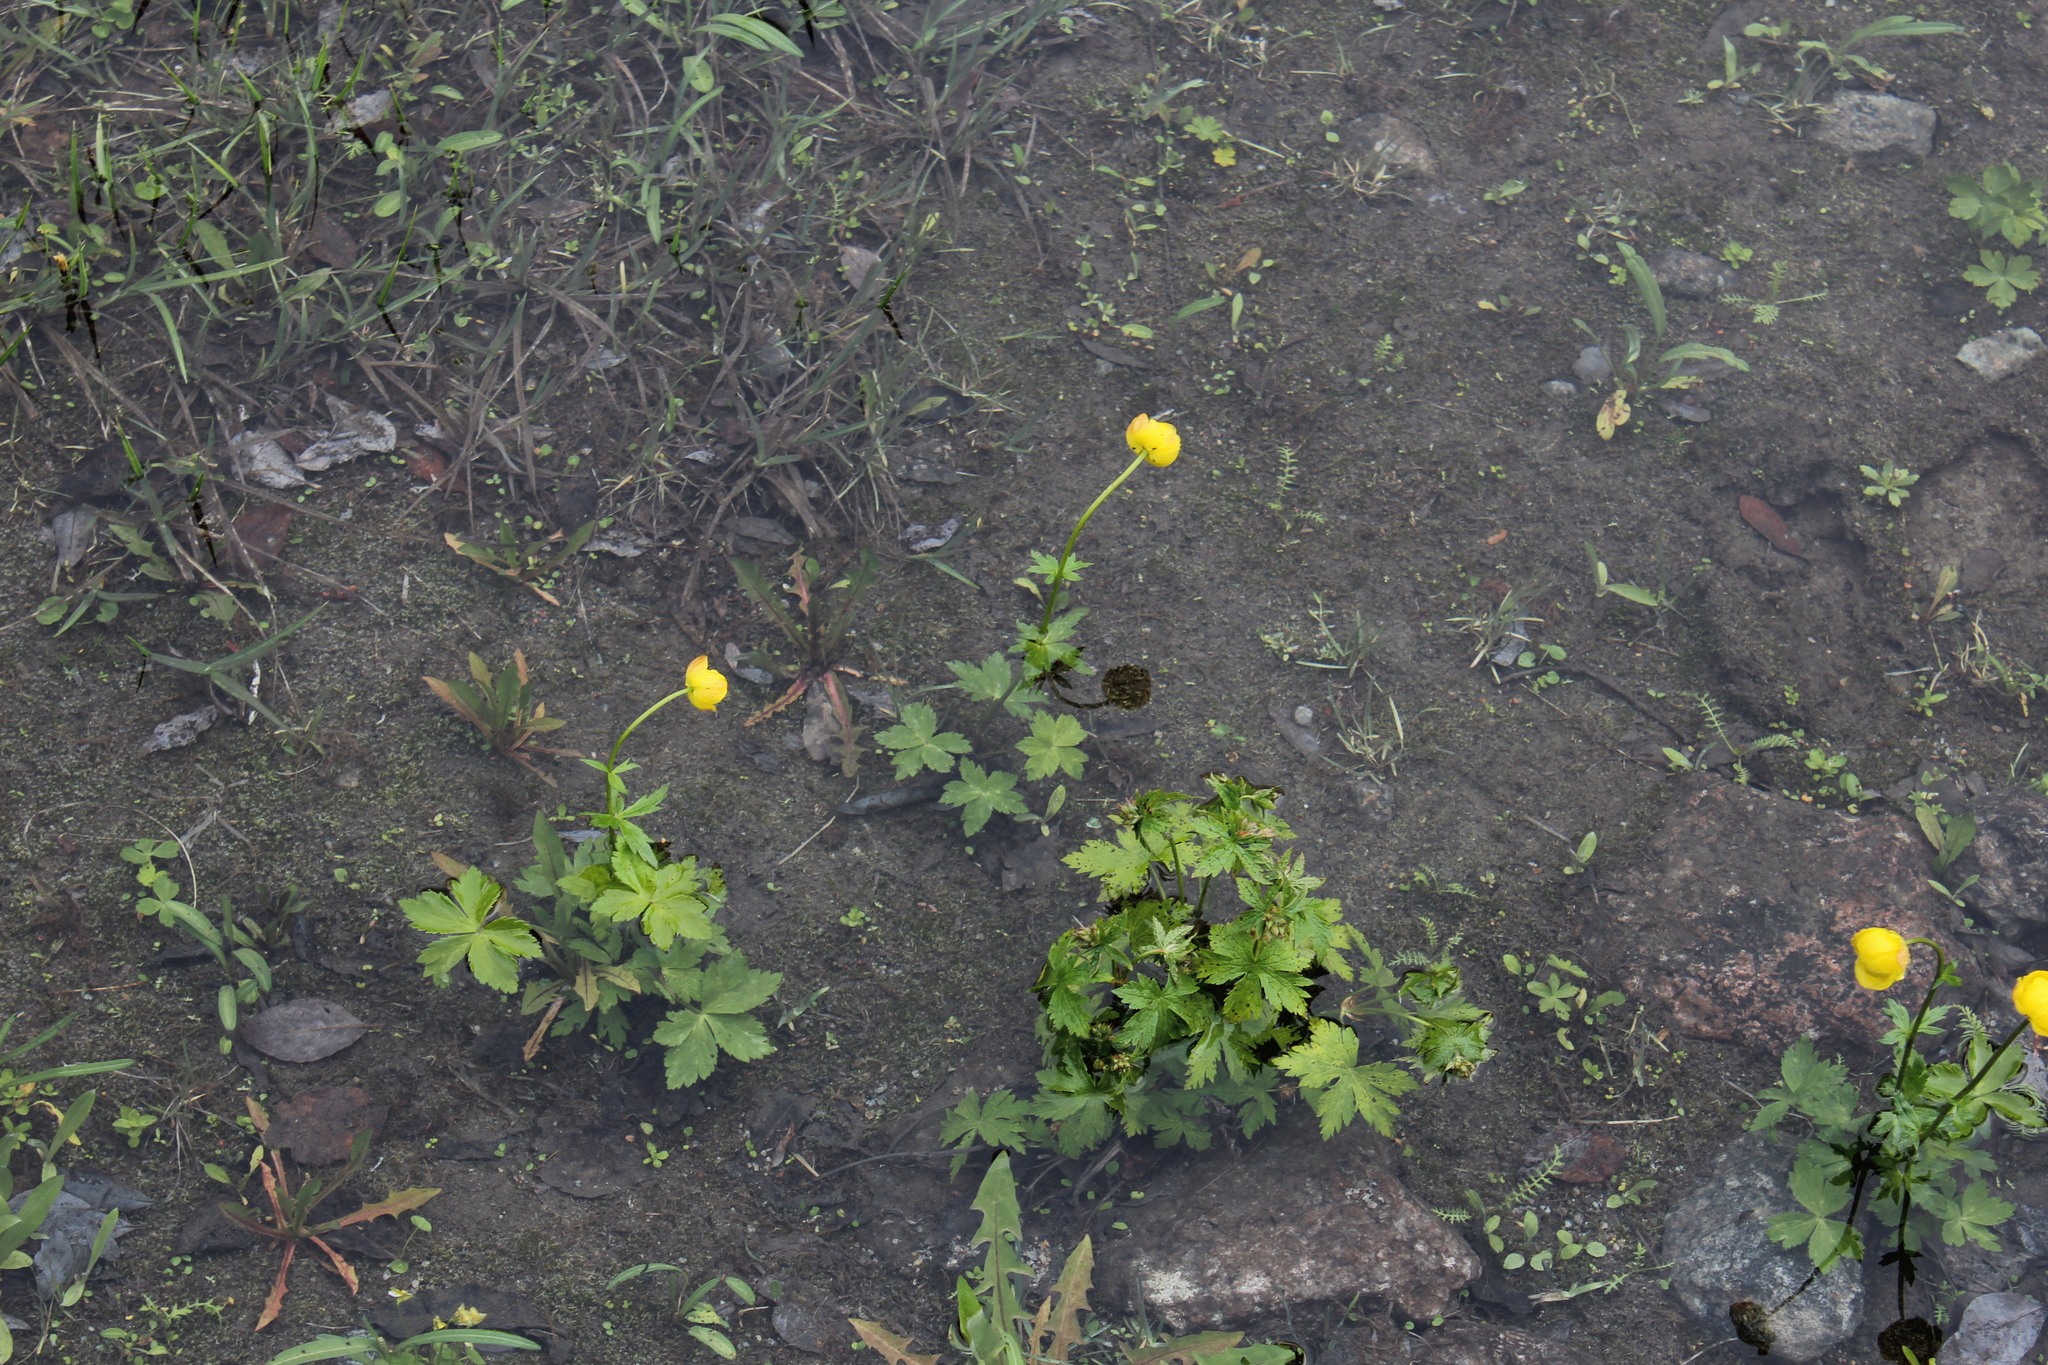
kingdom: Plantae
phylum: Tracheophyta
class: Magnoliopsida
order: Ranunculales
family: Ranunculaceae
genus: Trollius
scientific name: Trollius europaeus
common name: European globeflower
